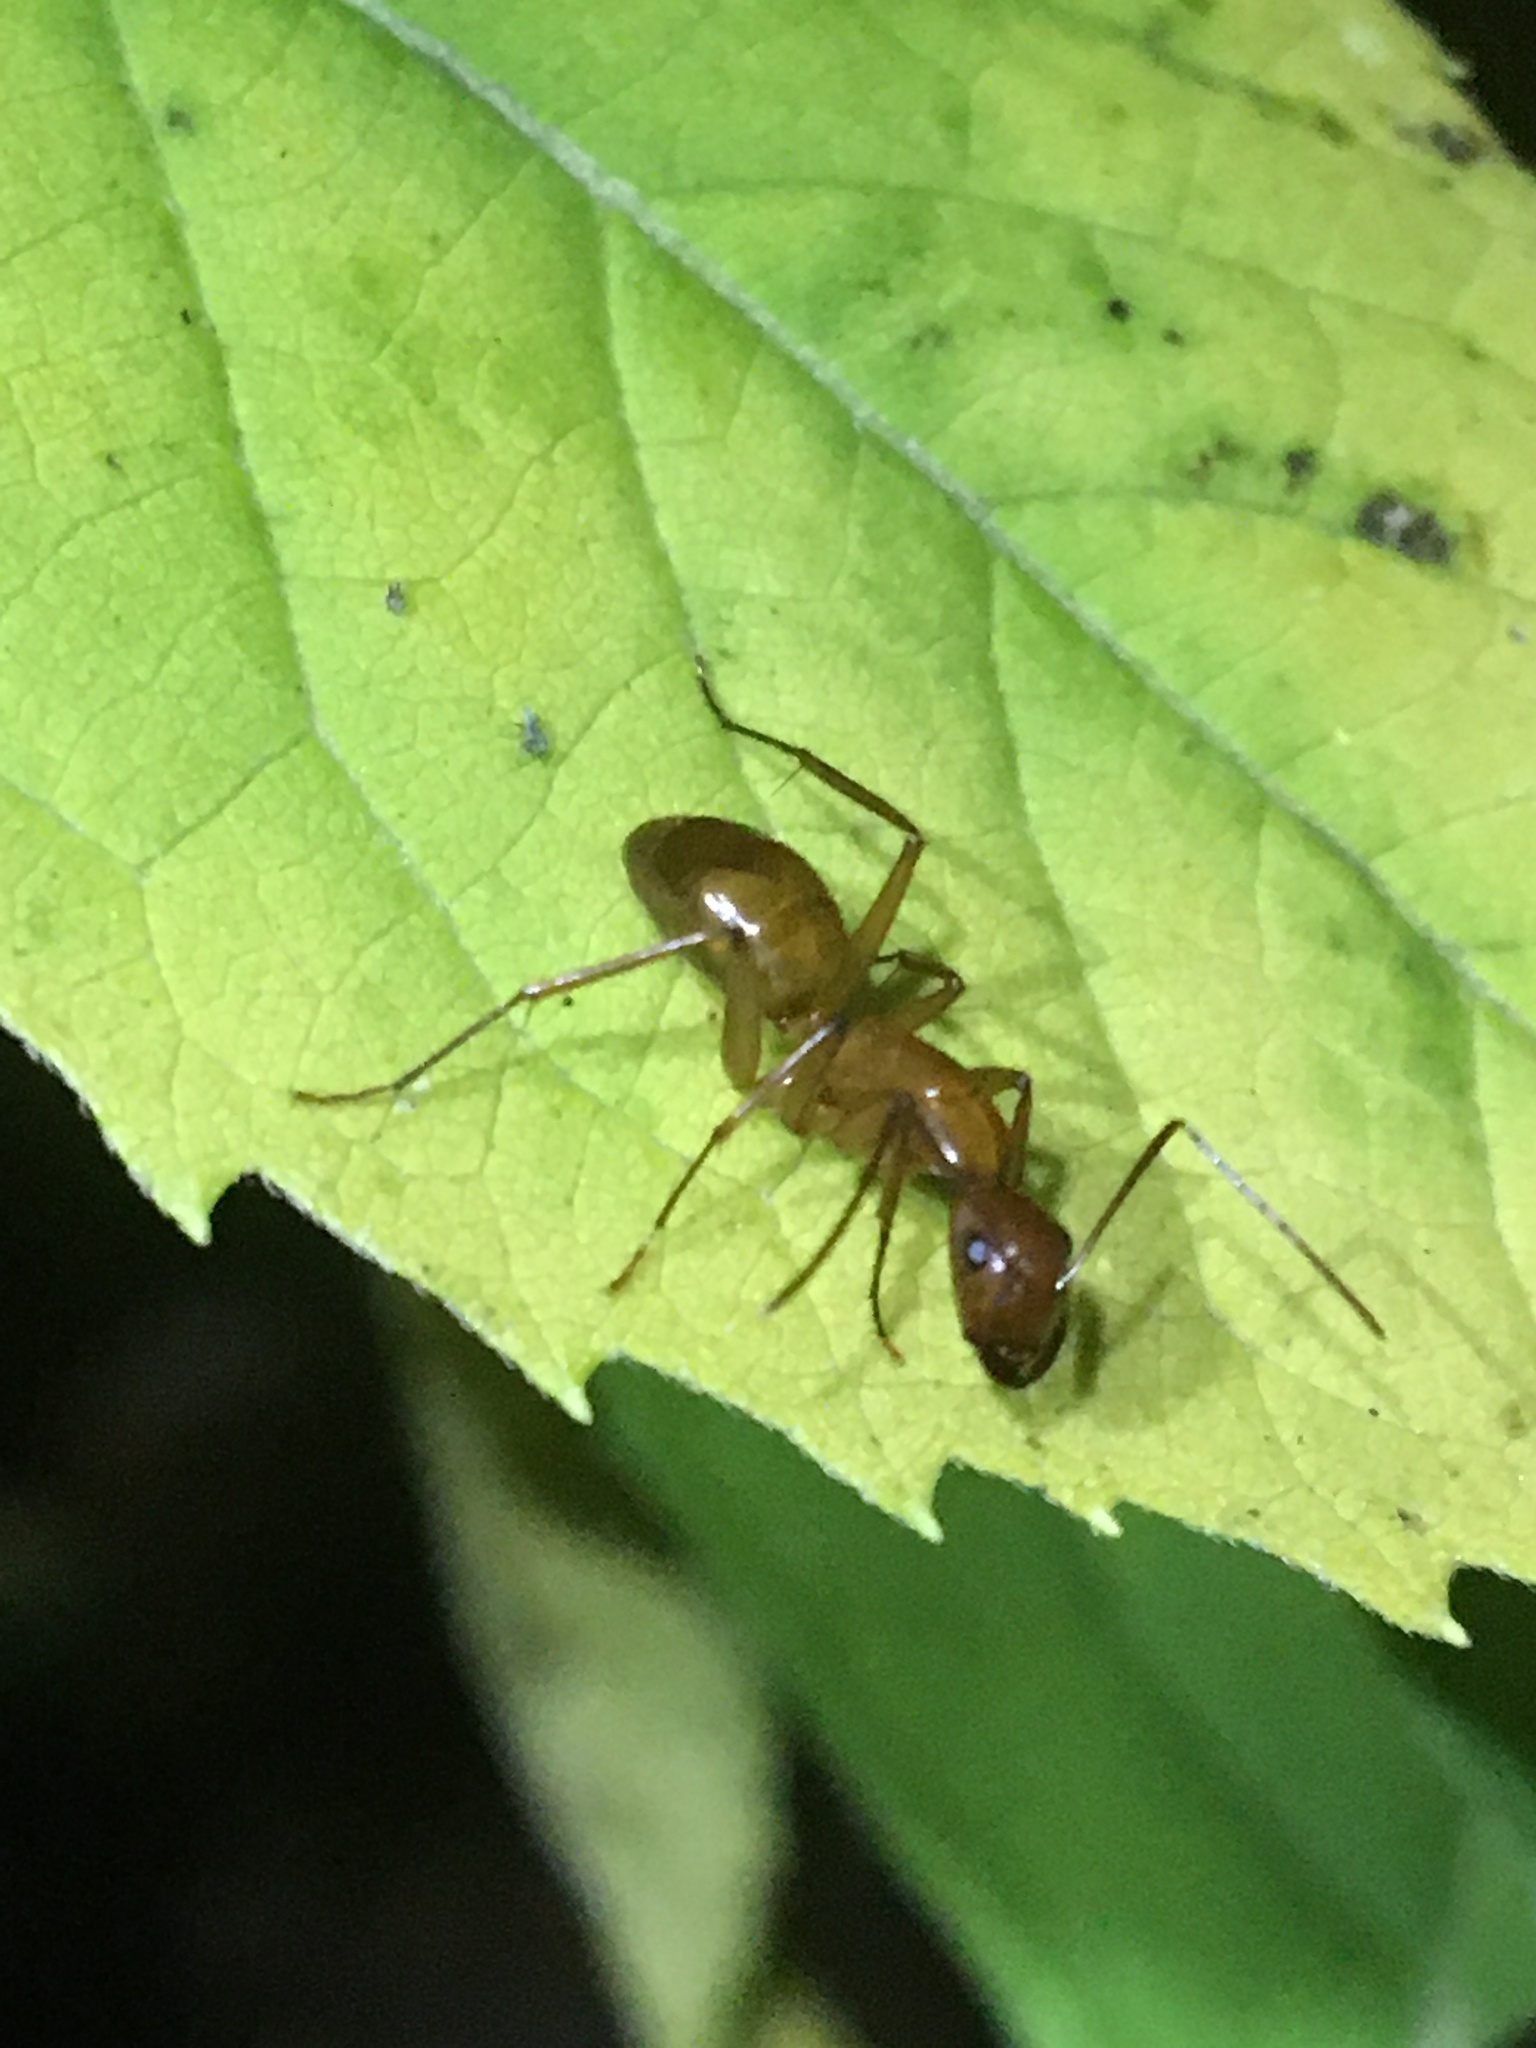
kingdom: Animalia
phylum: Arthropoda
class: Insecta
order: Hymenoptera
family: Formicidae
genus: Camponotus
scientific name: Camponotus castaneus
